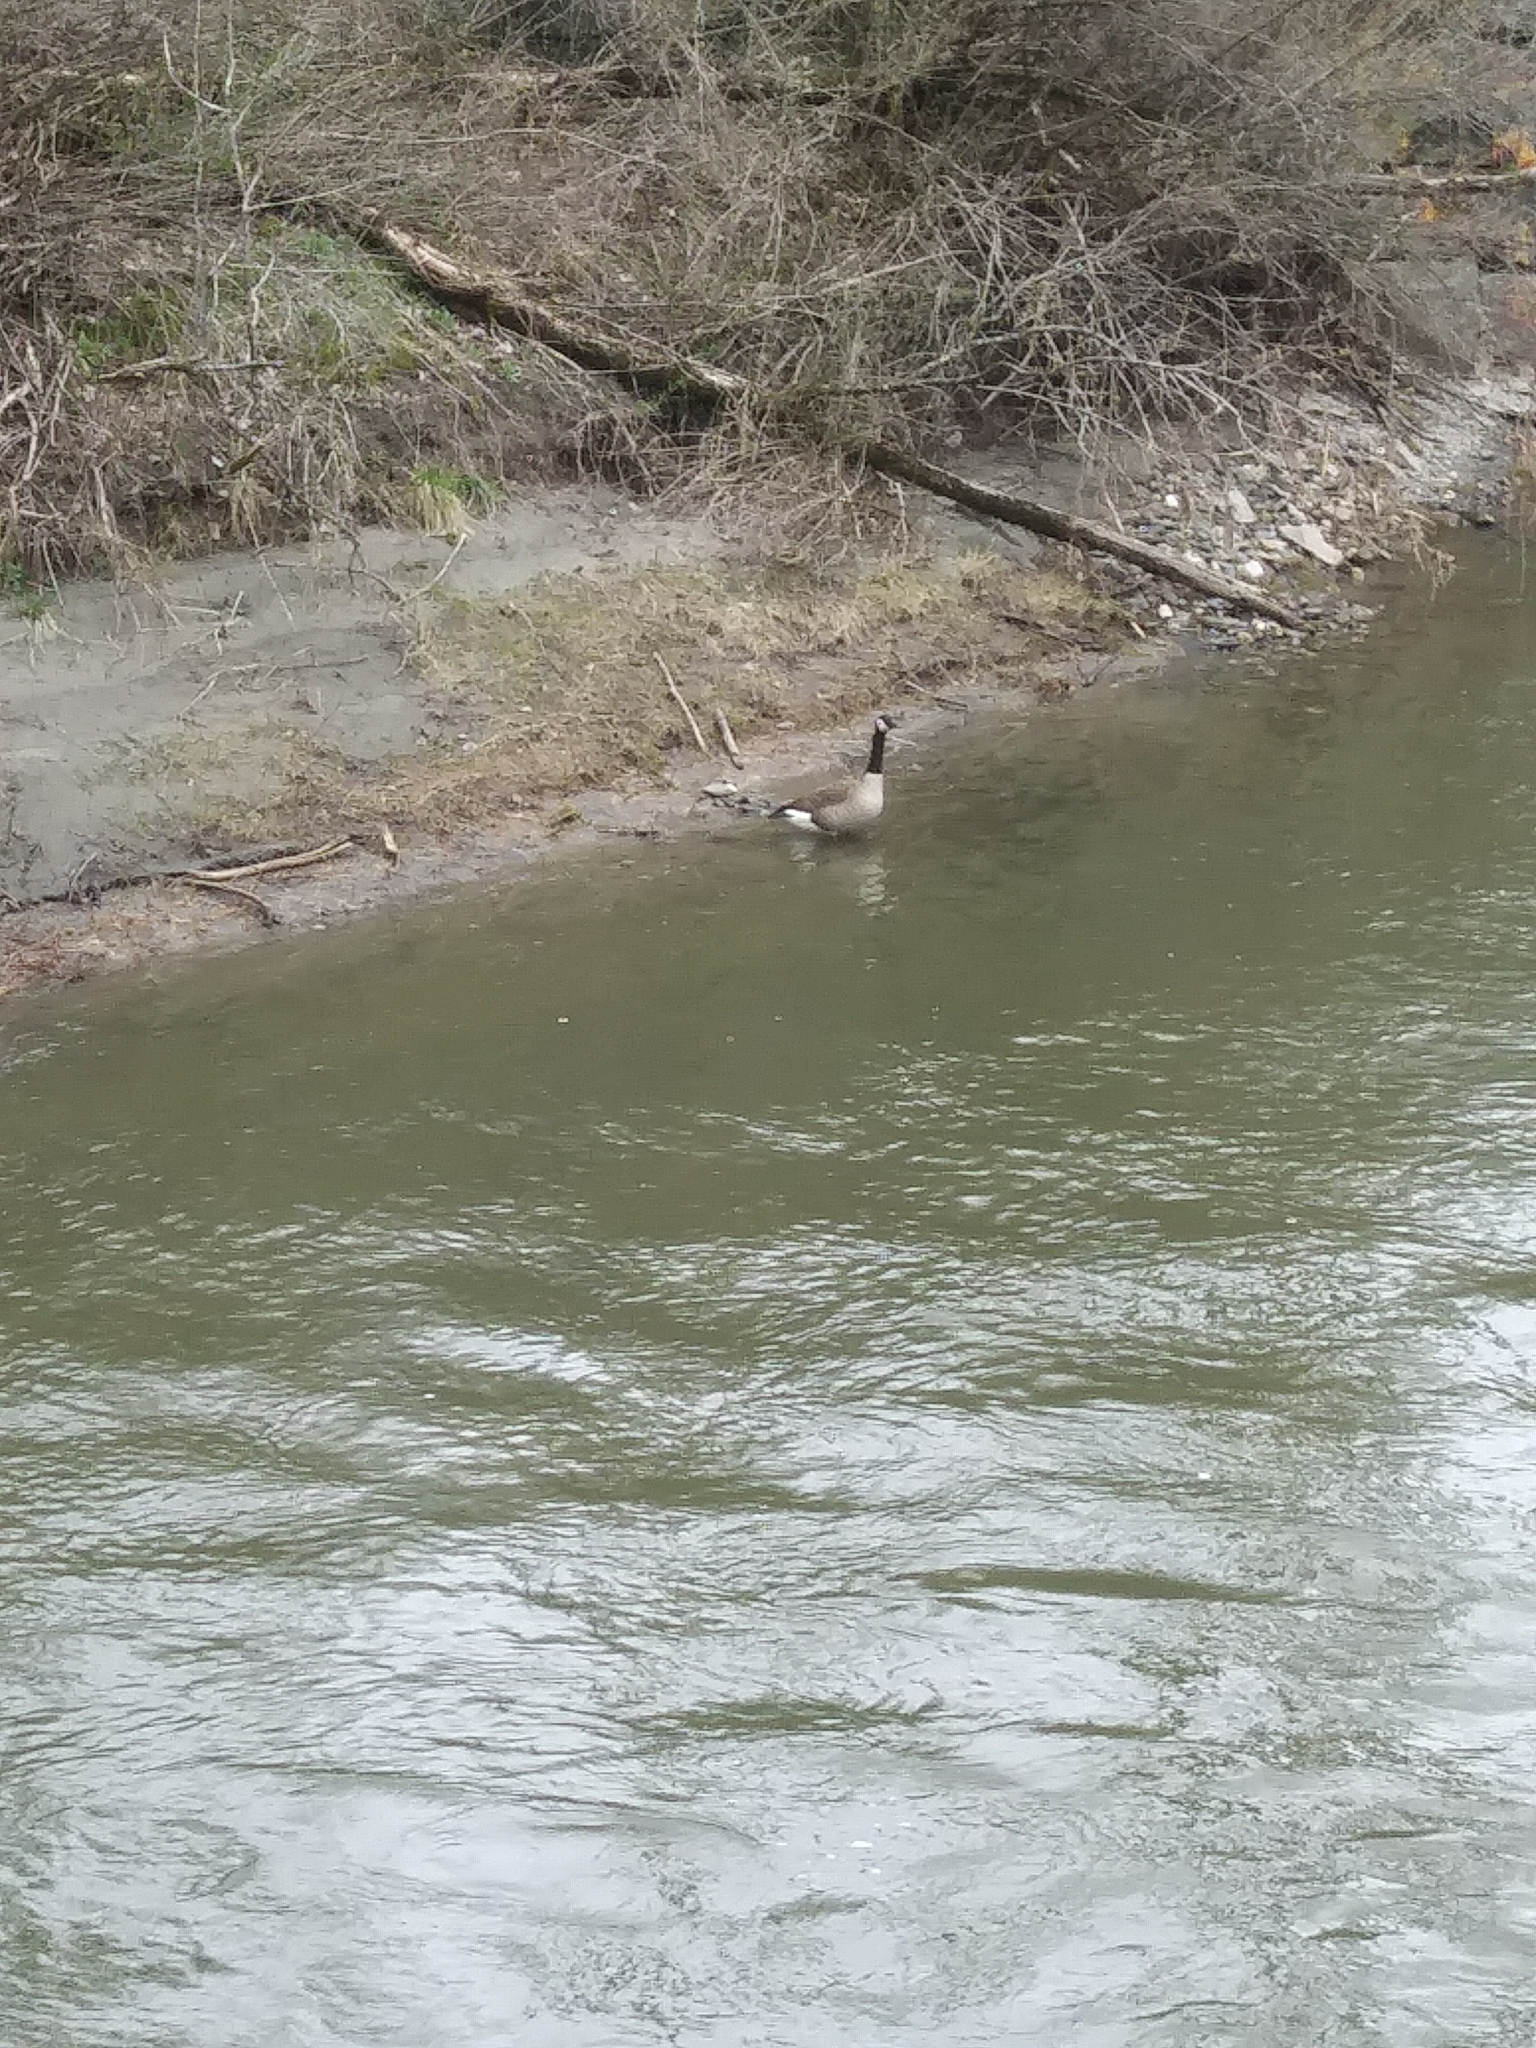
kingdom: Animalia
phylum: Chordata
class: Aves
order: Anseriformes
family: Anatidae
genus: Branta
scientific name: Branta canadensis
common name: Canada goose
